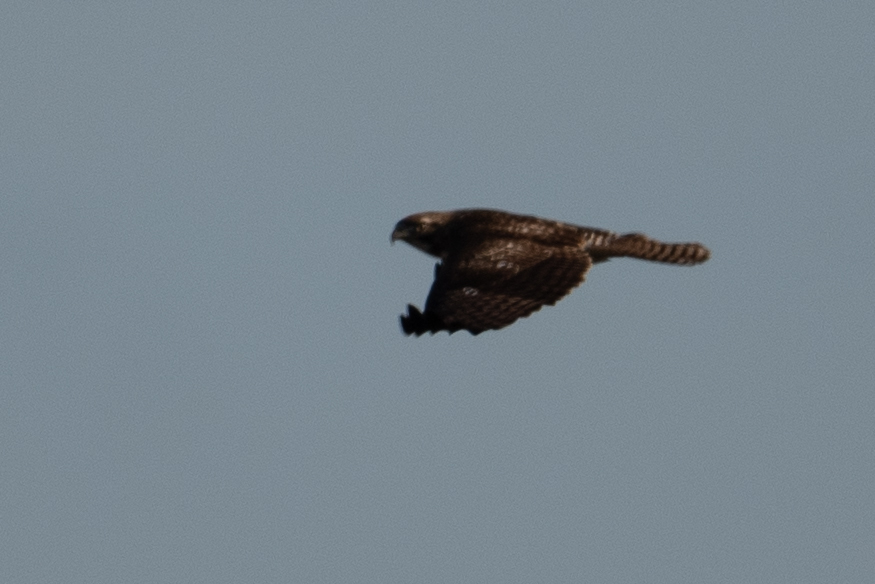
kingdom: Animalia
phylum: Chordata
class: Aves
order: Accipitriformes
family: Accipitridae
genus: Buteo
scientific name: Buteo jamaicensis
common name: Red-tailed hawk
